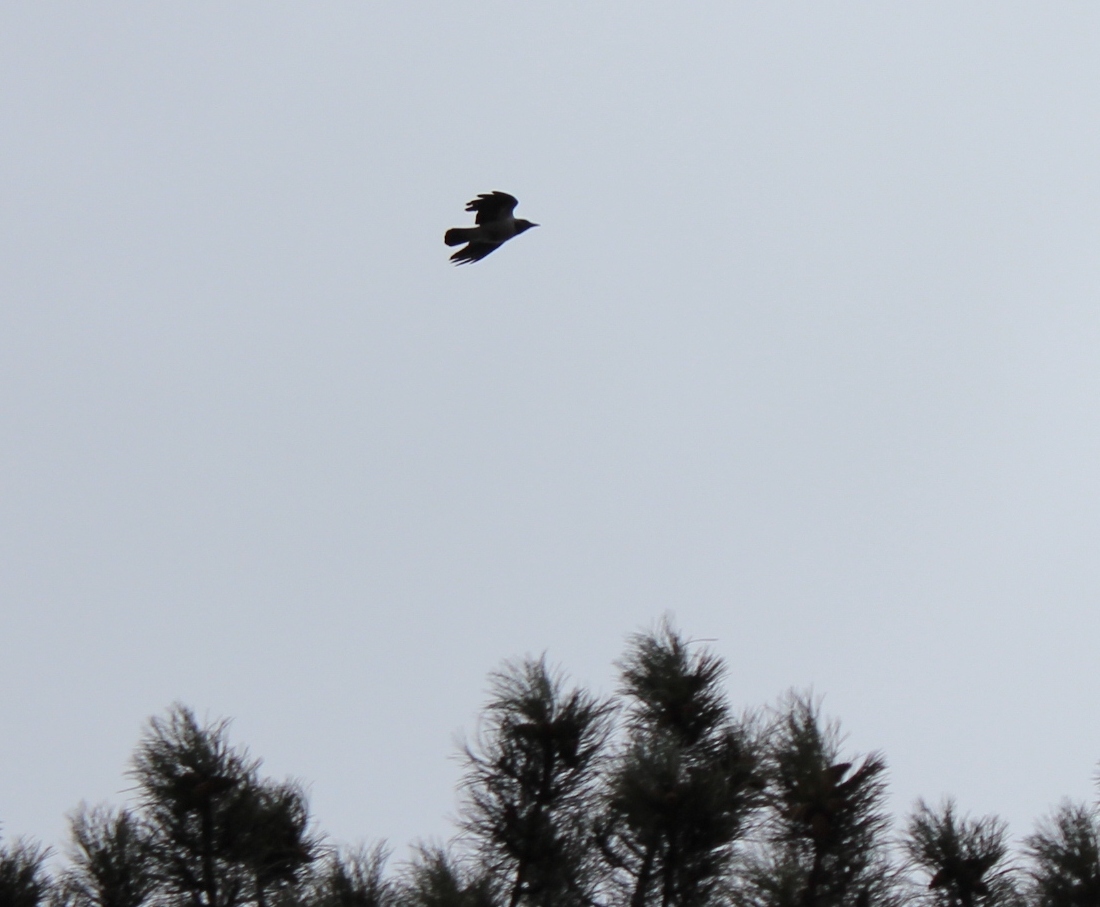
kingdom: Animalia
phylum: Chordata
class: Aves
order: Passeriformes
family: Corvidae
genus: Corvus
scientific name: Corvus cornix
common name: Hooded crow
